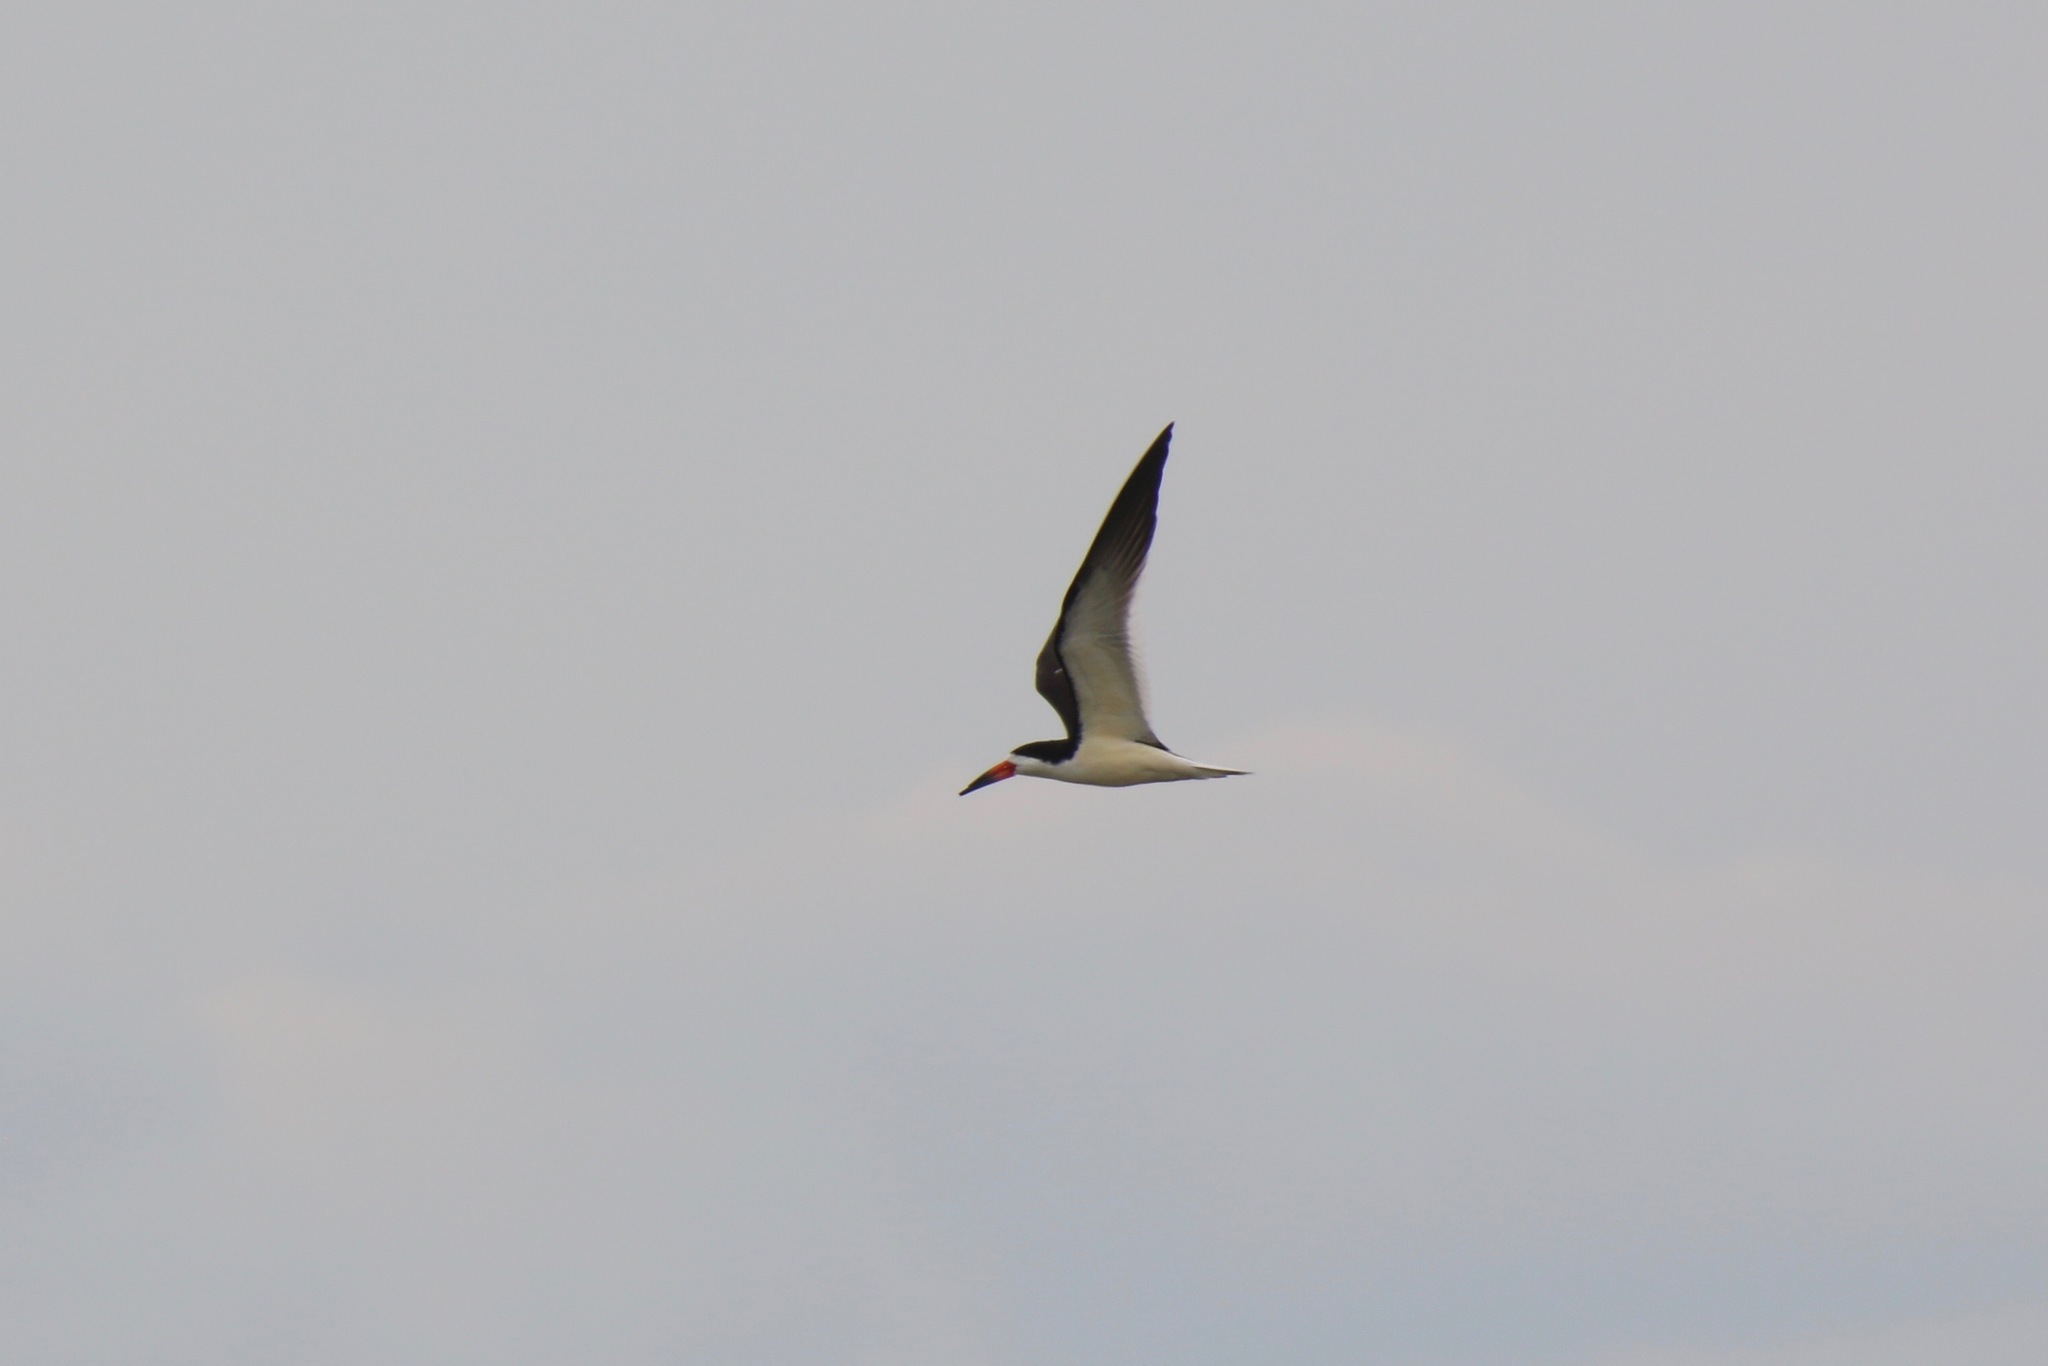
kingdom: Animalia
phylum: Chordata
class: Aves
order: Charadriiformes
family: Laridae
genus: Rynchops
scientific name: Rynchops niger
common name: Black skimmer
